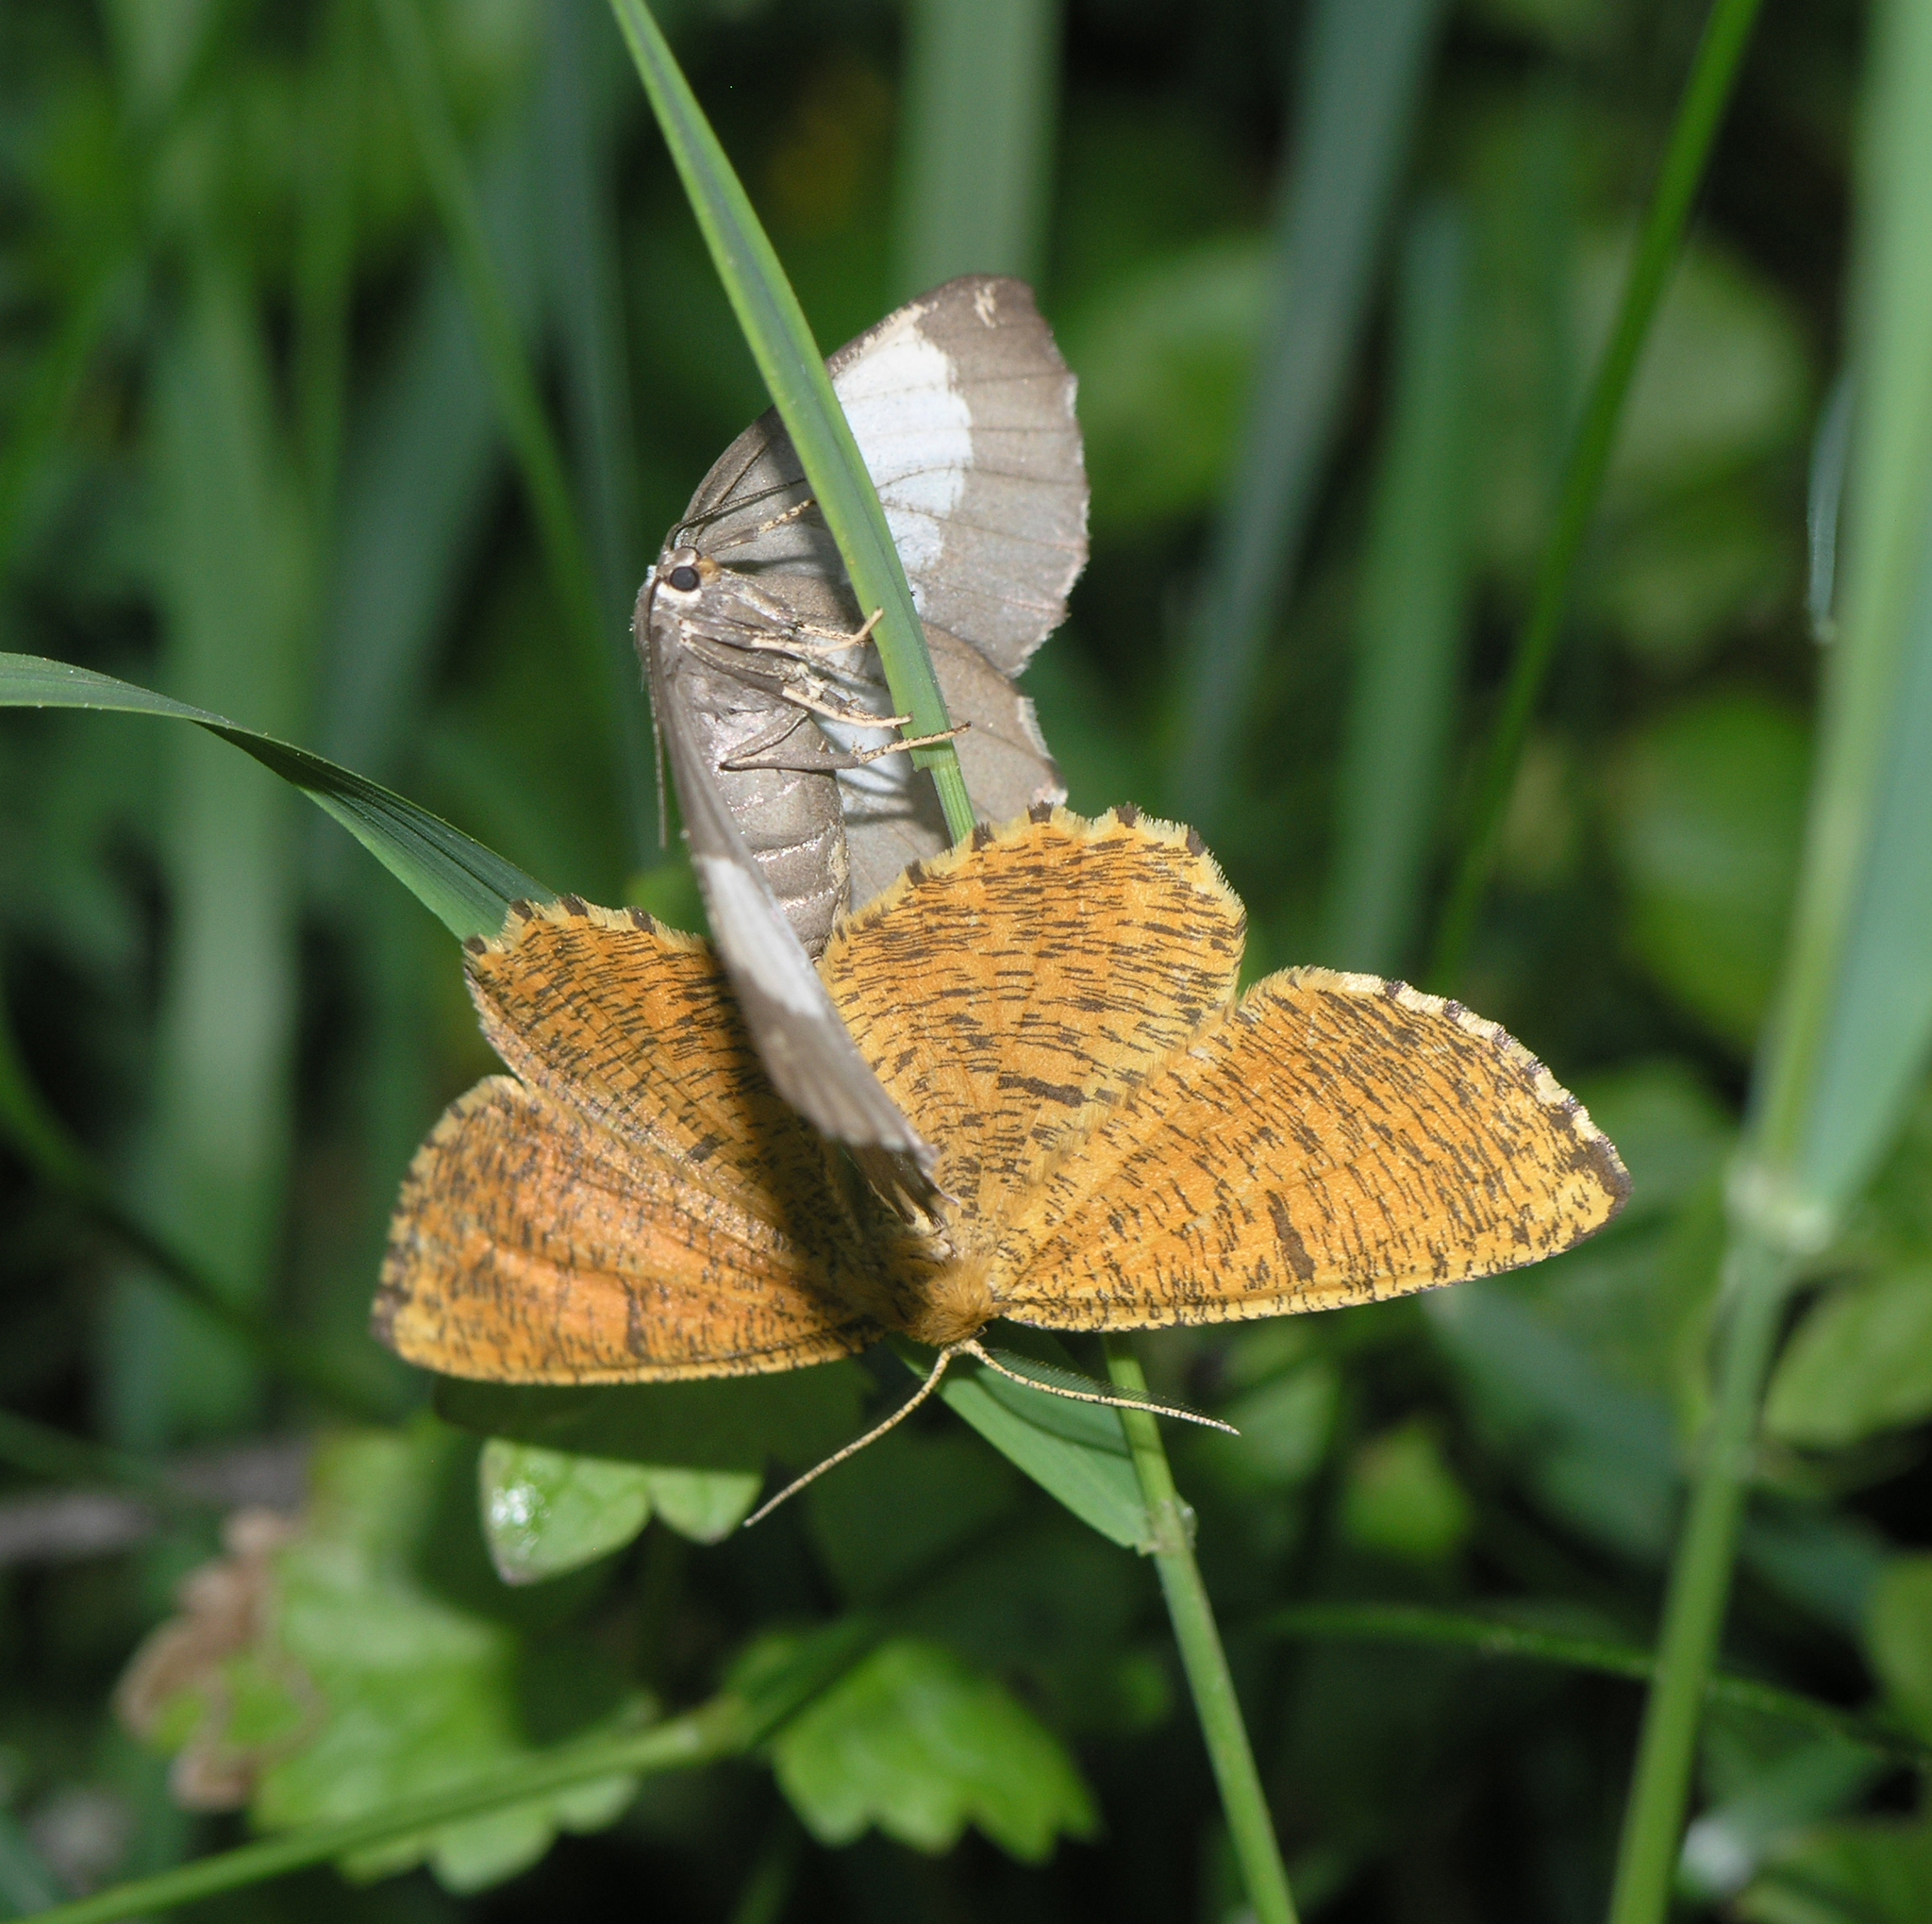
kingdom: Animalia
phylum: Arthropoda
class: Insecta
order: Lepidoptera
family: Geometridae
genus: Angerona
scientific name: Angerona prunaria
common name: Orange moth
